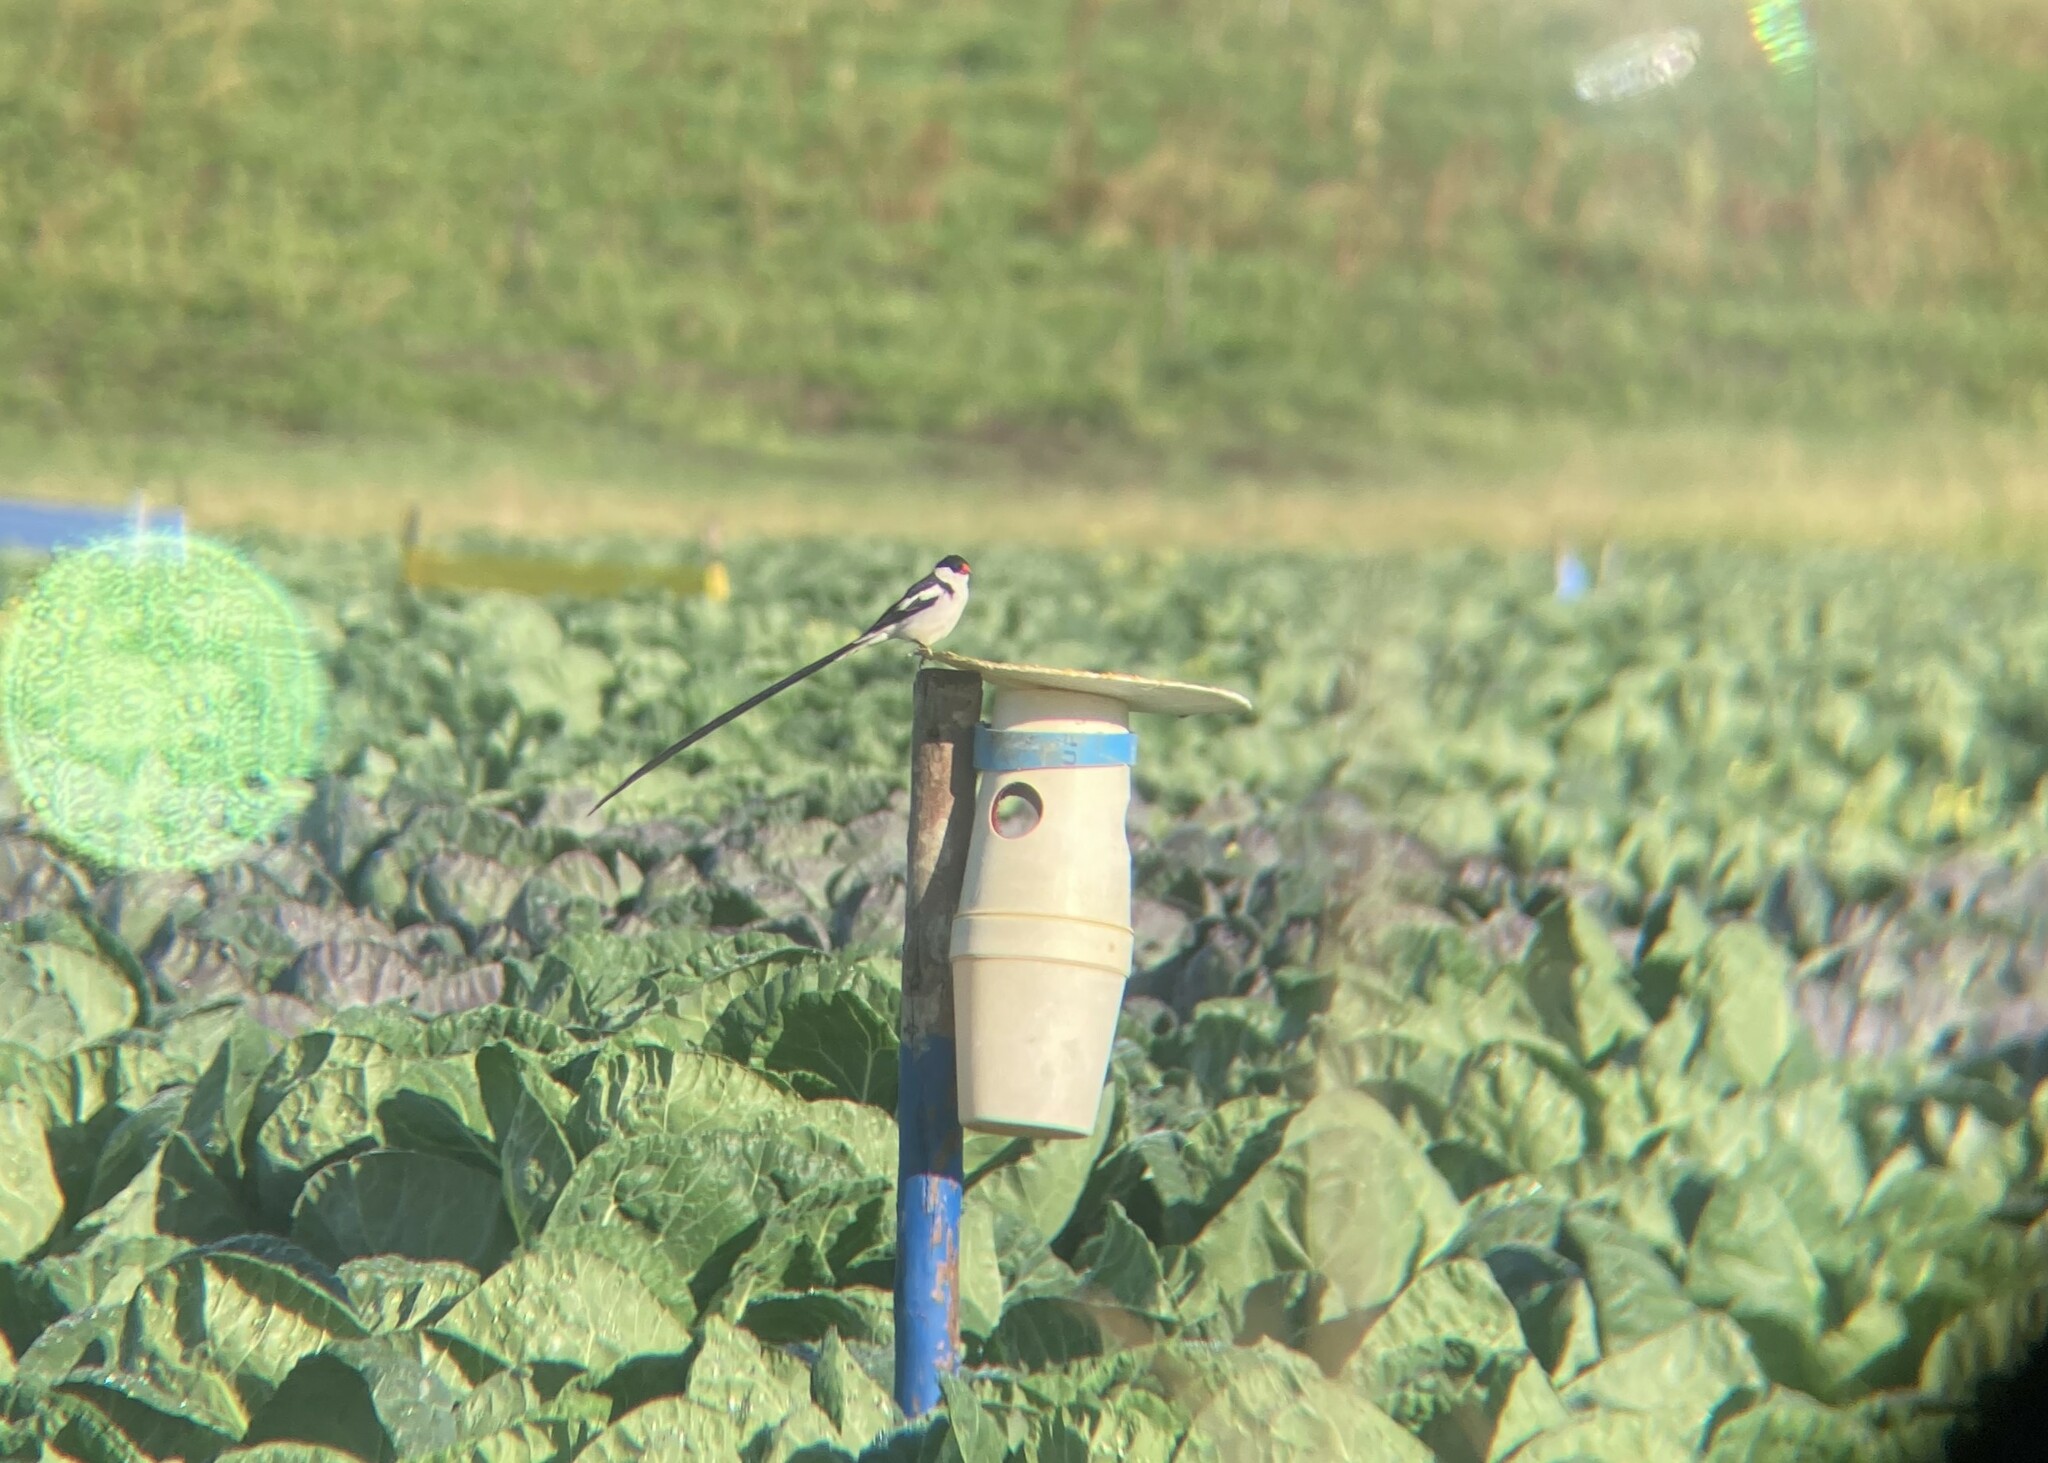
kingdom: Animalia
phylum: Chordata
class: Aves
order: Passeriformes
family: Viduidae
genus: Vidua
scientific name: Vidua macroura
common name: Pin-tailed whydah
